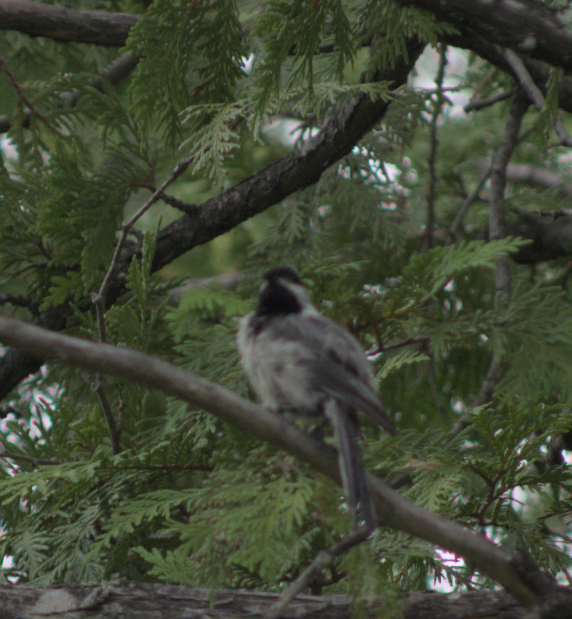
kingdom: Animalia
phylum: Chordata
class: Aves
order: Passeriformes
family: Paridae
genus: Poecile
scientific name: Poecile atricapillus
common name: Black-capped chickadee
